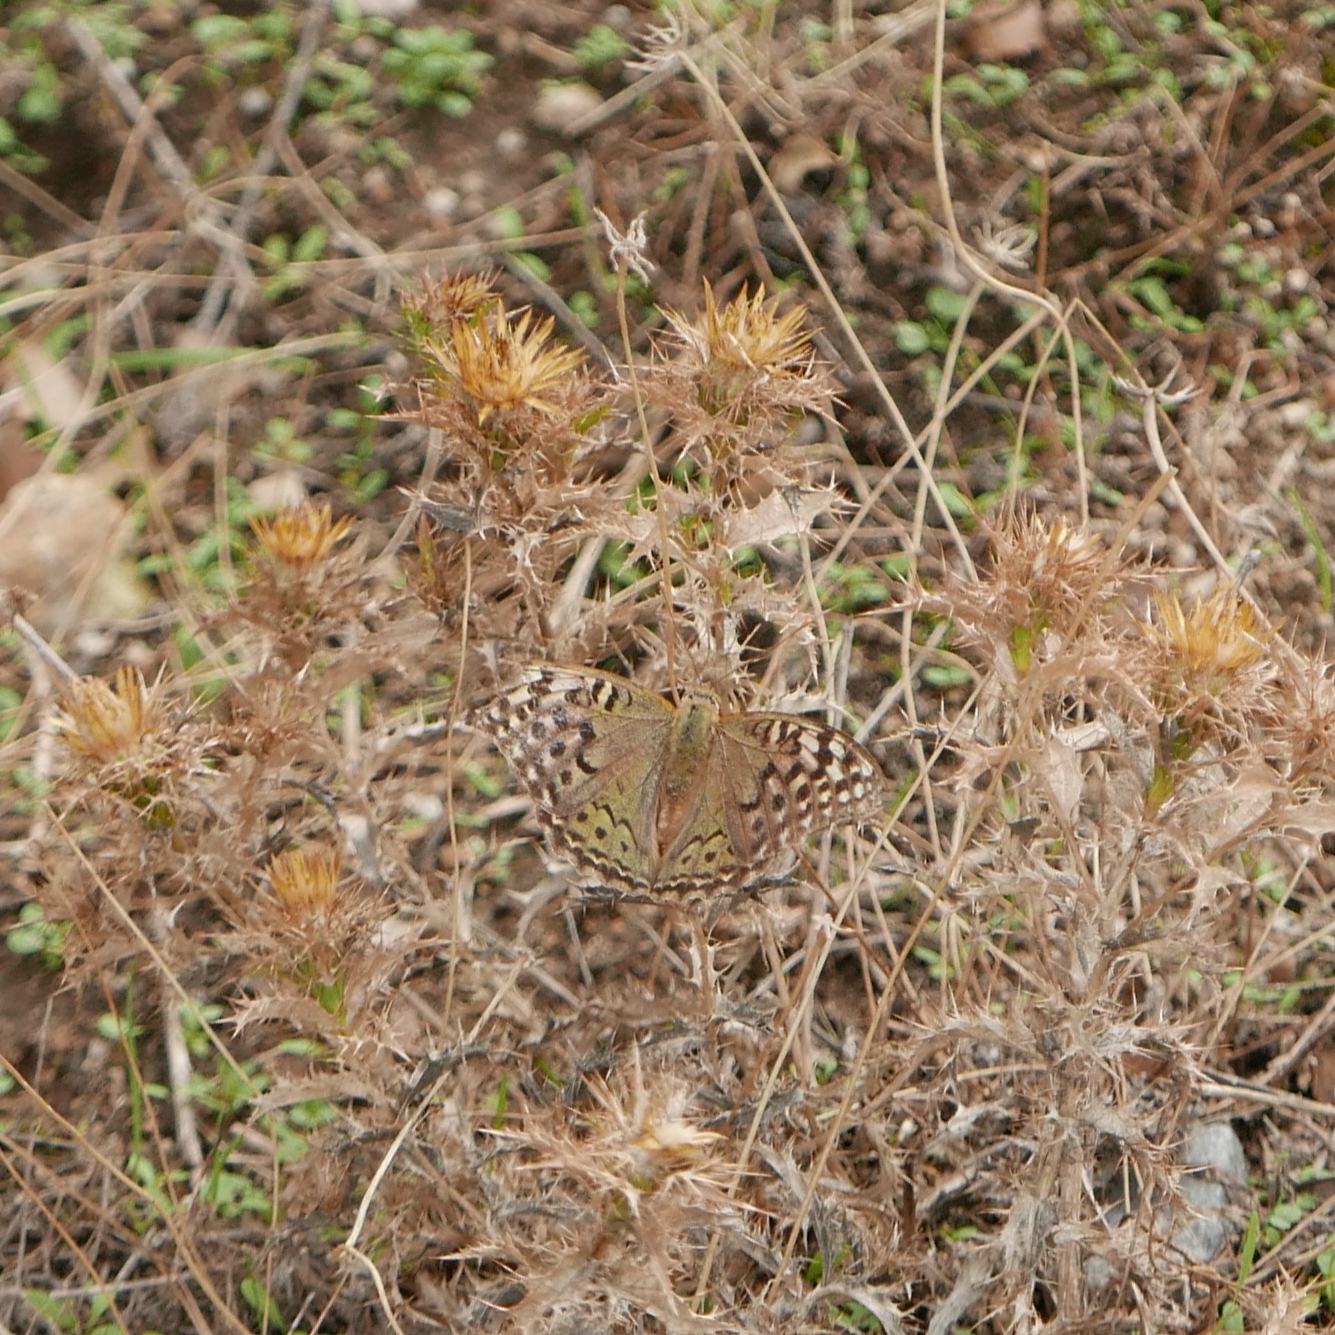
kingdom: Animalia
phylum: Arthropoda
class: Insecta
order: Lepidoptera
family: Nymphalidae
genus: Damora
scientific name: Damora pandora
